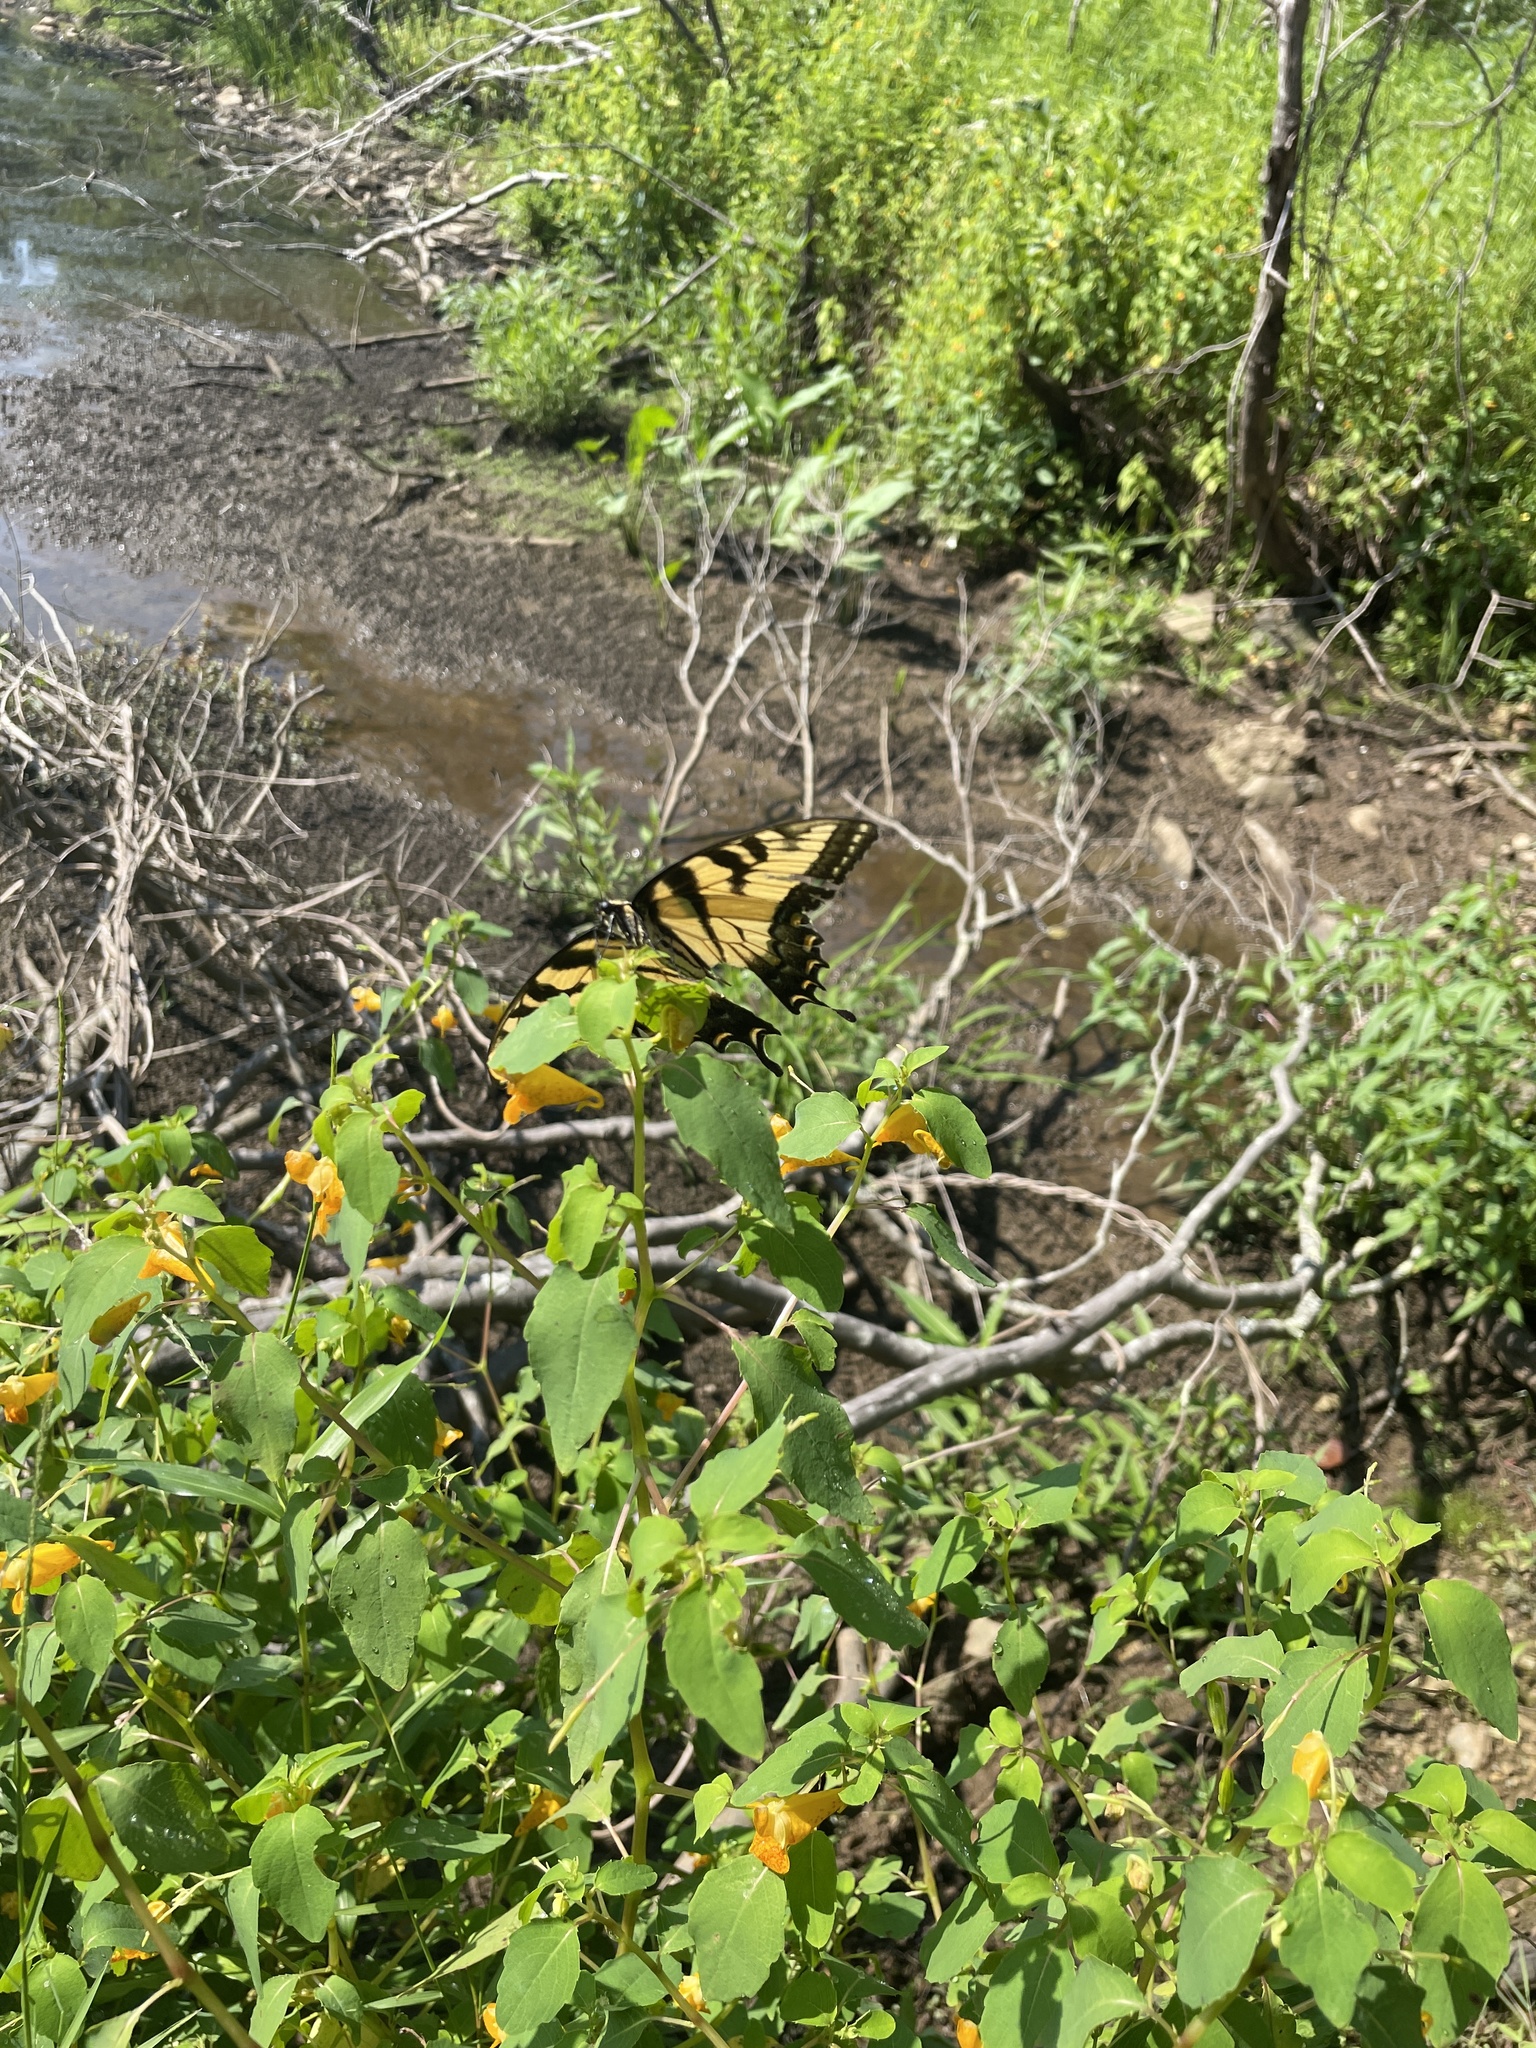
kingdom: Animalia
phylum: Arthropoda
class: Insecta
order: Lepidoptera
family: Papilionidae
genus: Papilio
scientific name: Papilio glaucus
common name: Tiger swallowtail
